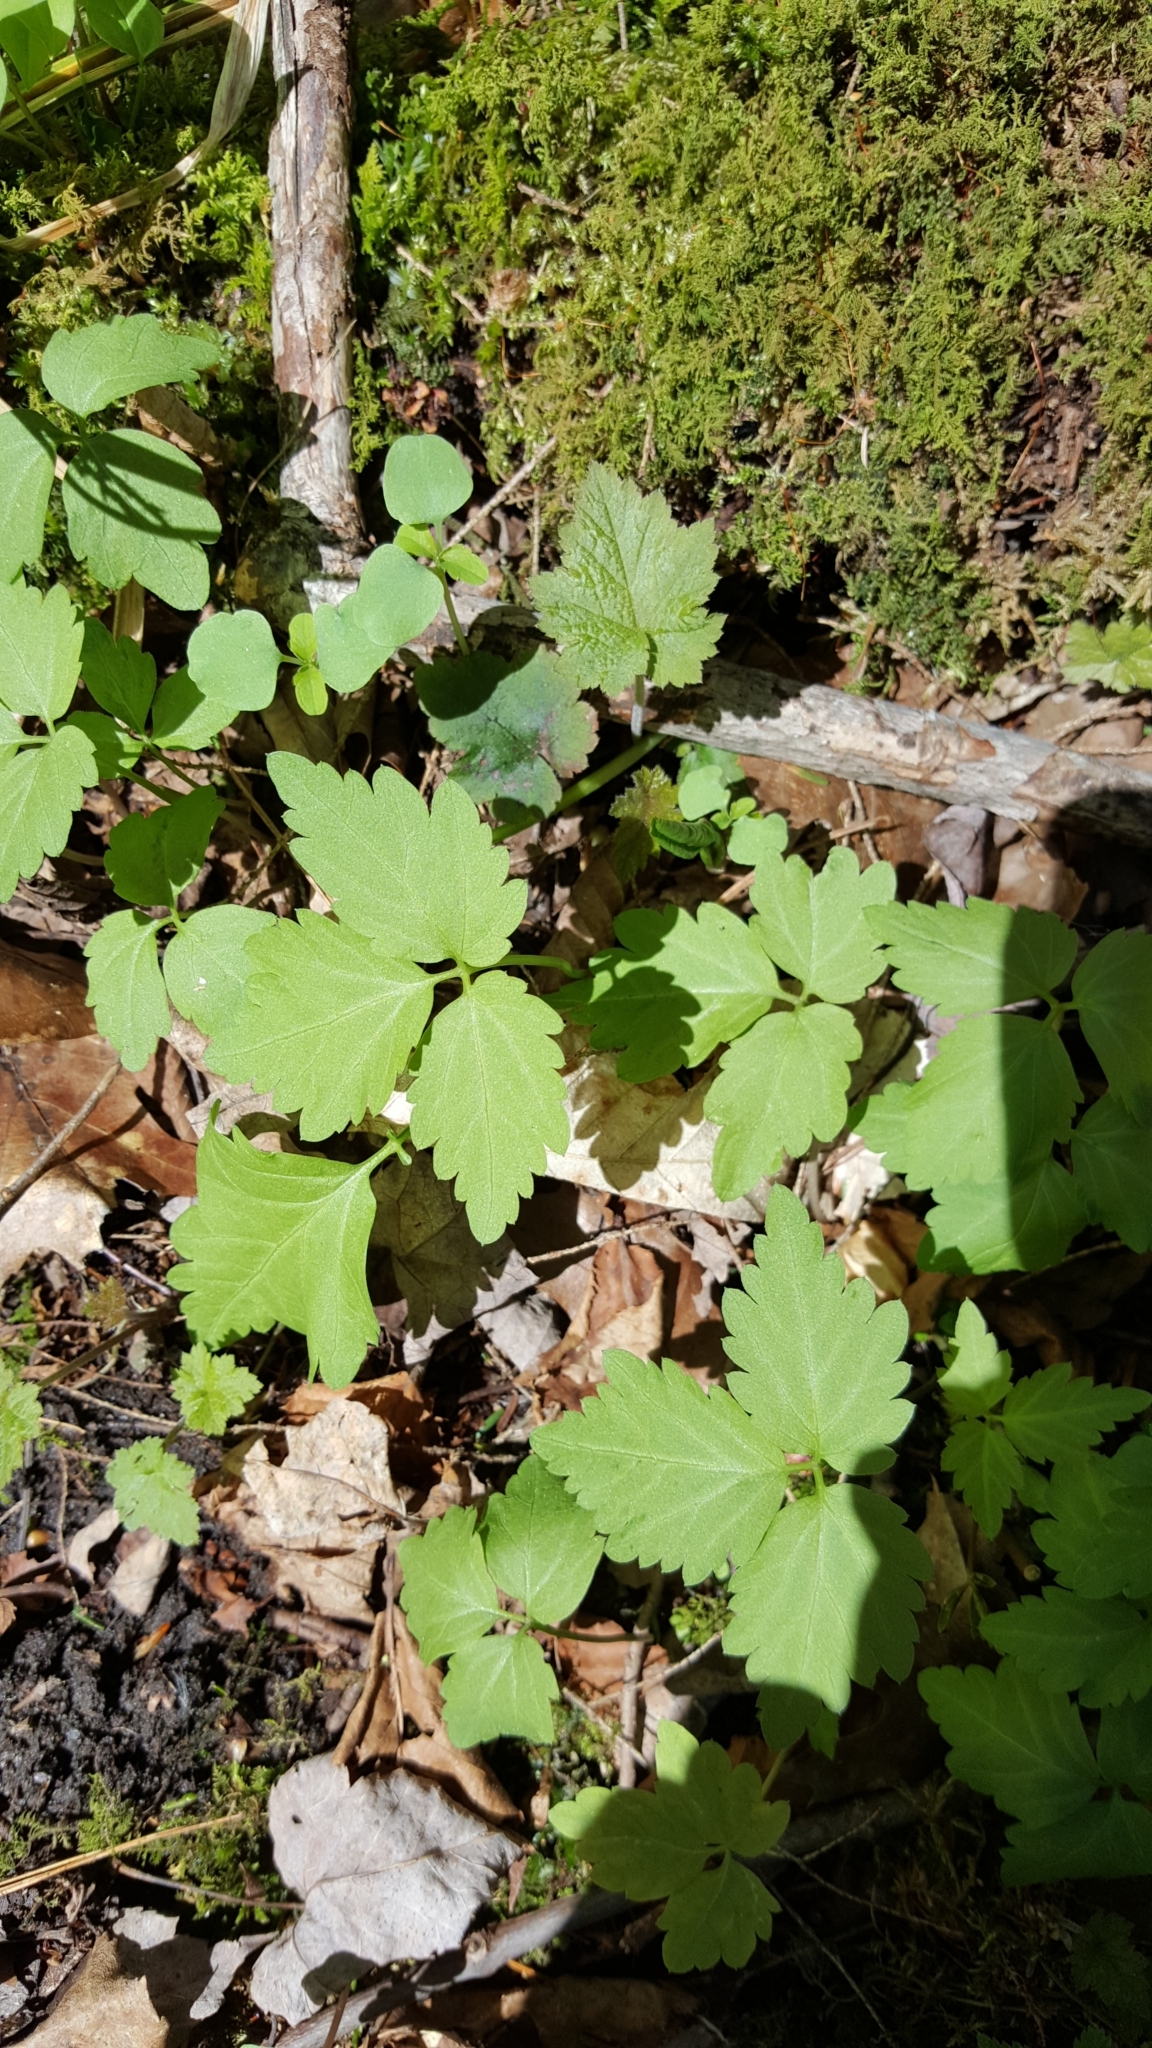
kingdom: Plantae
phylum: Tracheophyta
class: Magnoliopsida
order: Brassicales
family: Brassicaceae
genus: Cardamine
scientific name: Cardamine diphylla
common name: Broad-leaved toothwort
